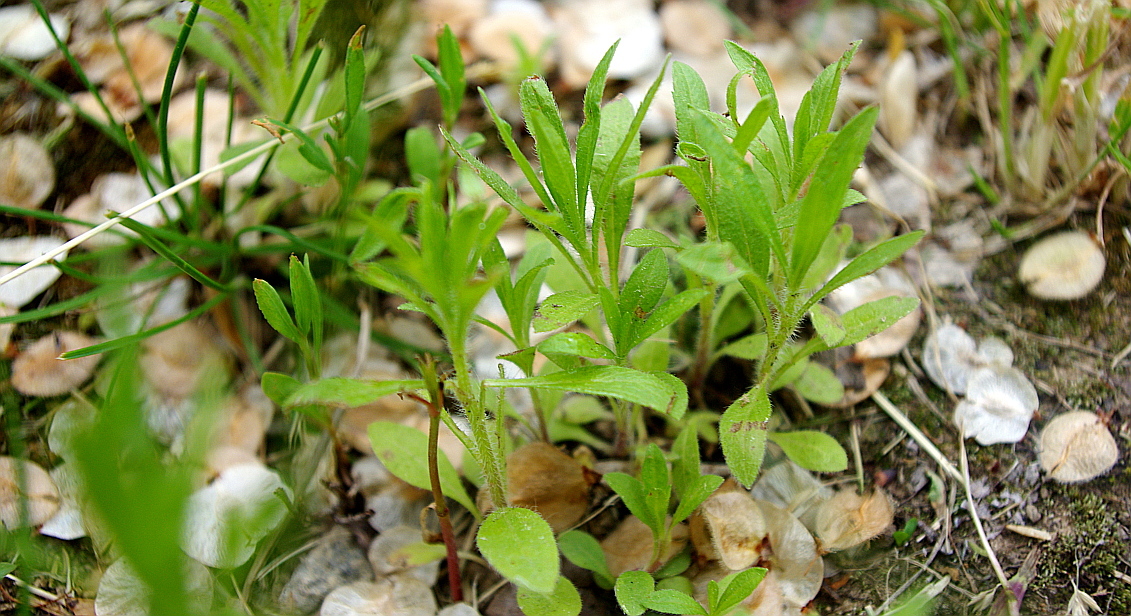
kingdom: Plantae
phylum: Tracheophyta
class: Magnoliopsida
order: Asterales
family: Asteraceae
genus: Erigeron
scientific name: Erigeron canadensis
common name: Canadian fleabane
